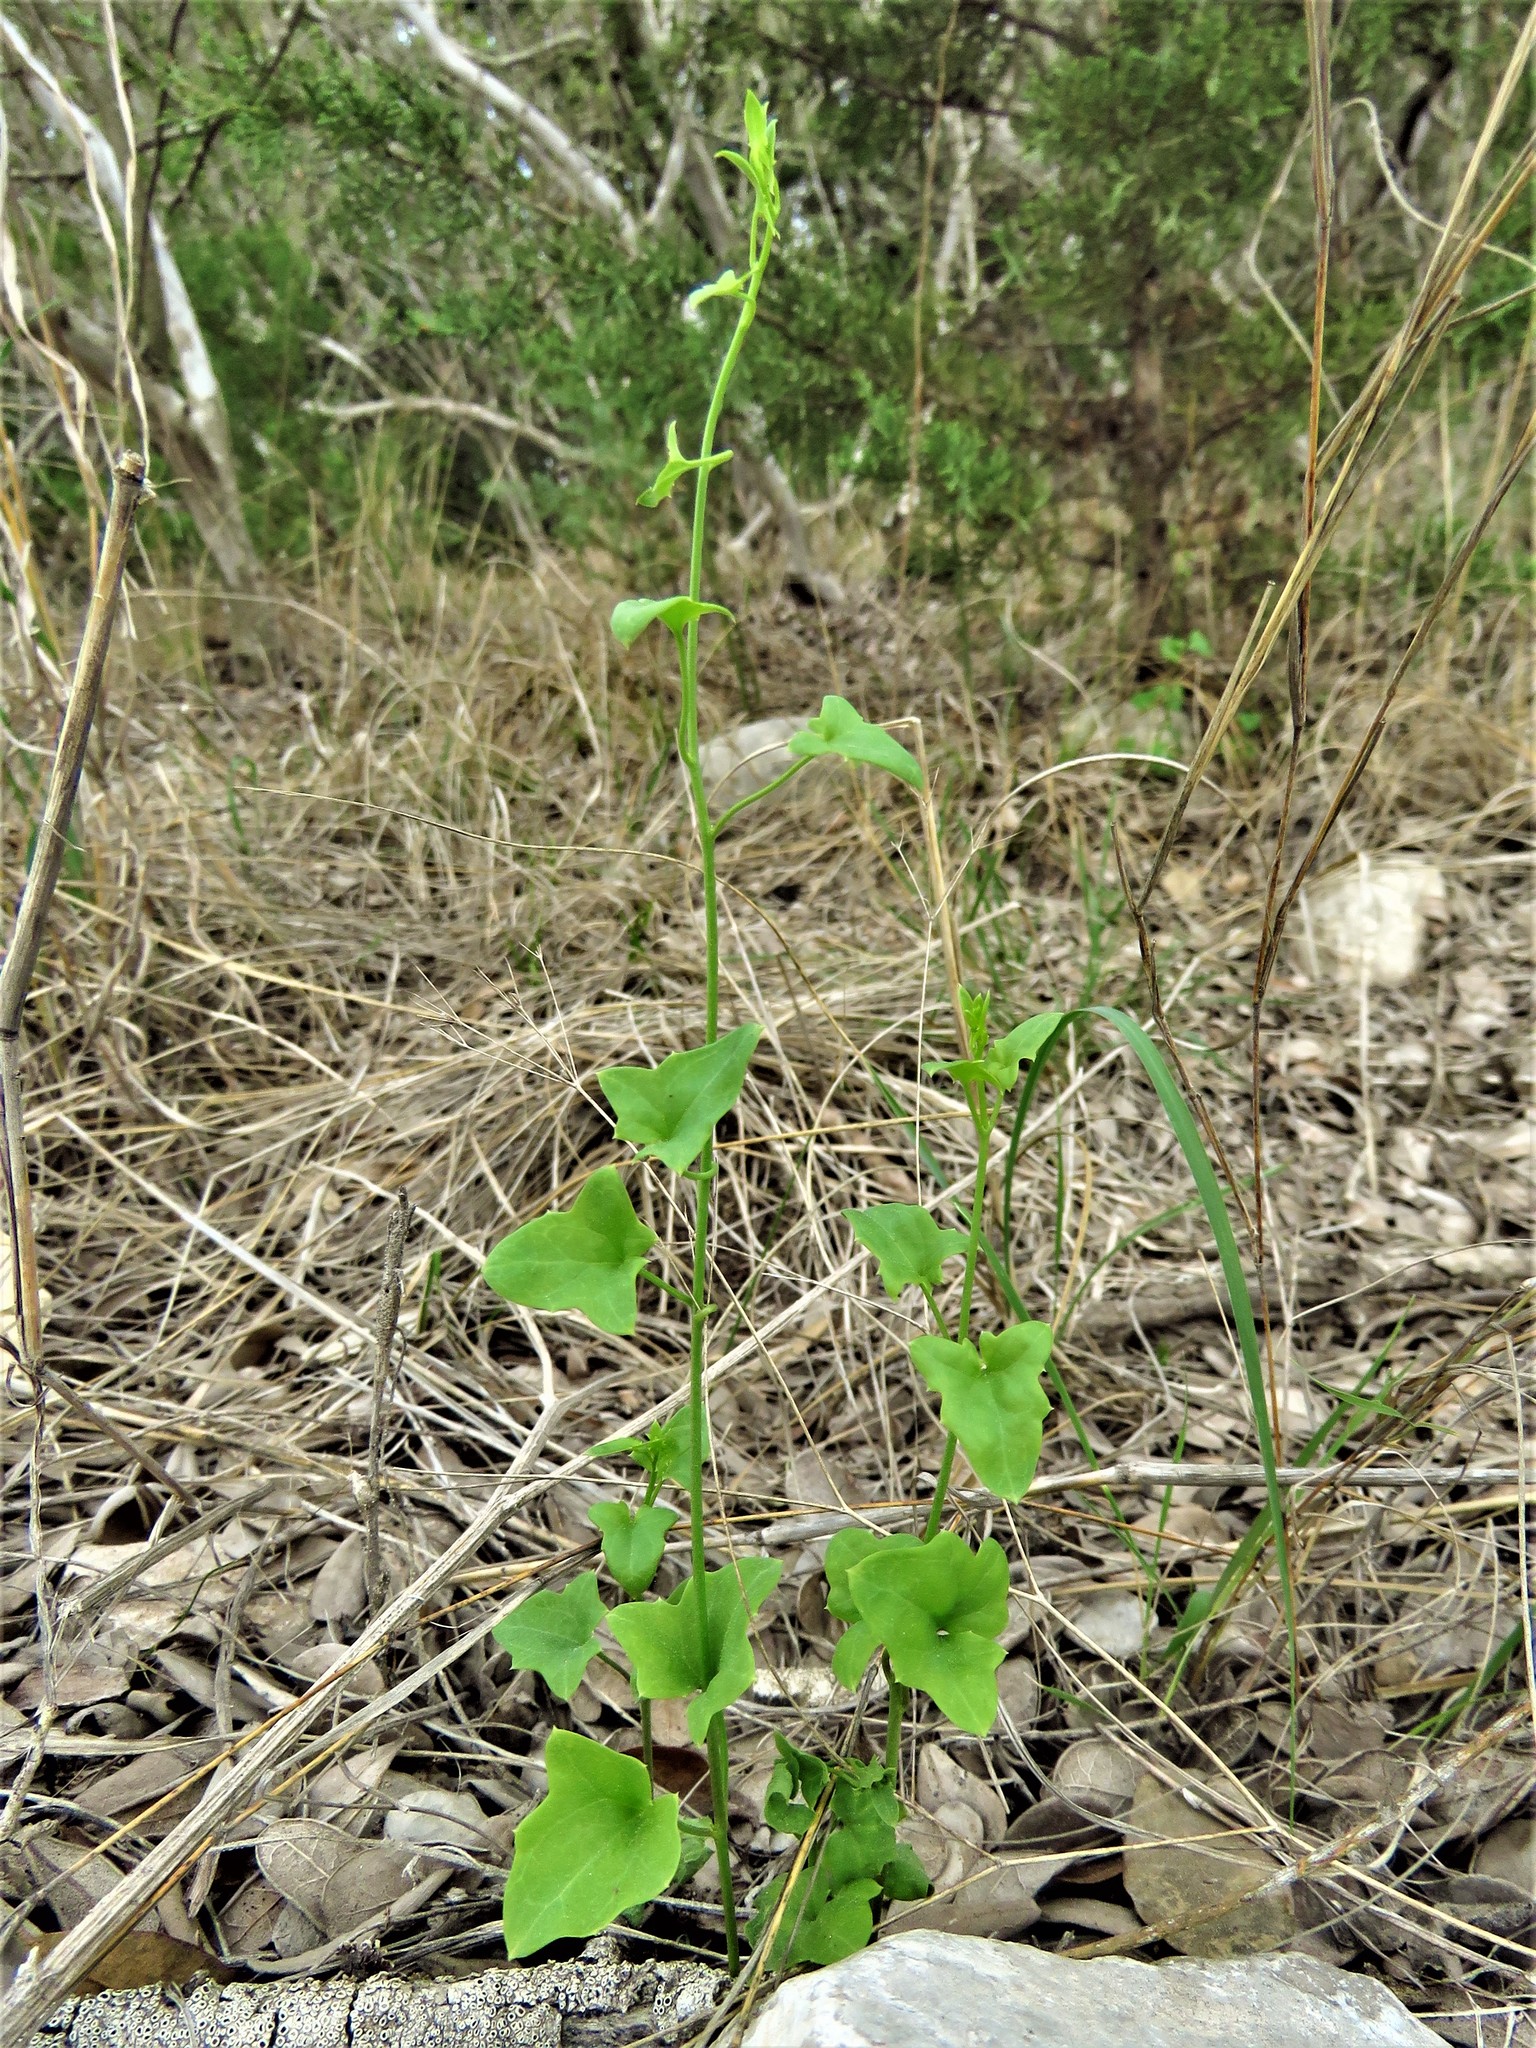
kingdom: Plantae
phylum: Tracheophyta
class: Magnoliopsida
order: Lamiales
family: Plantaginaceae
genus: Maurandella
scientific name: Maurandella antirrhiniflora
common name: Violet twining-snapdragon
